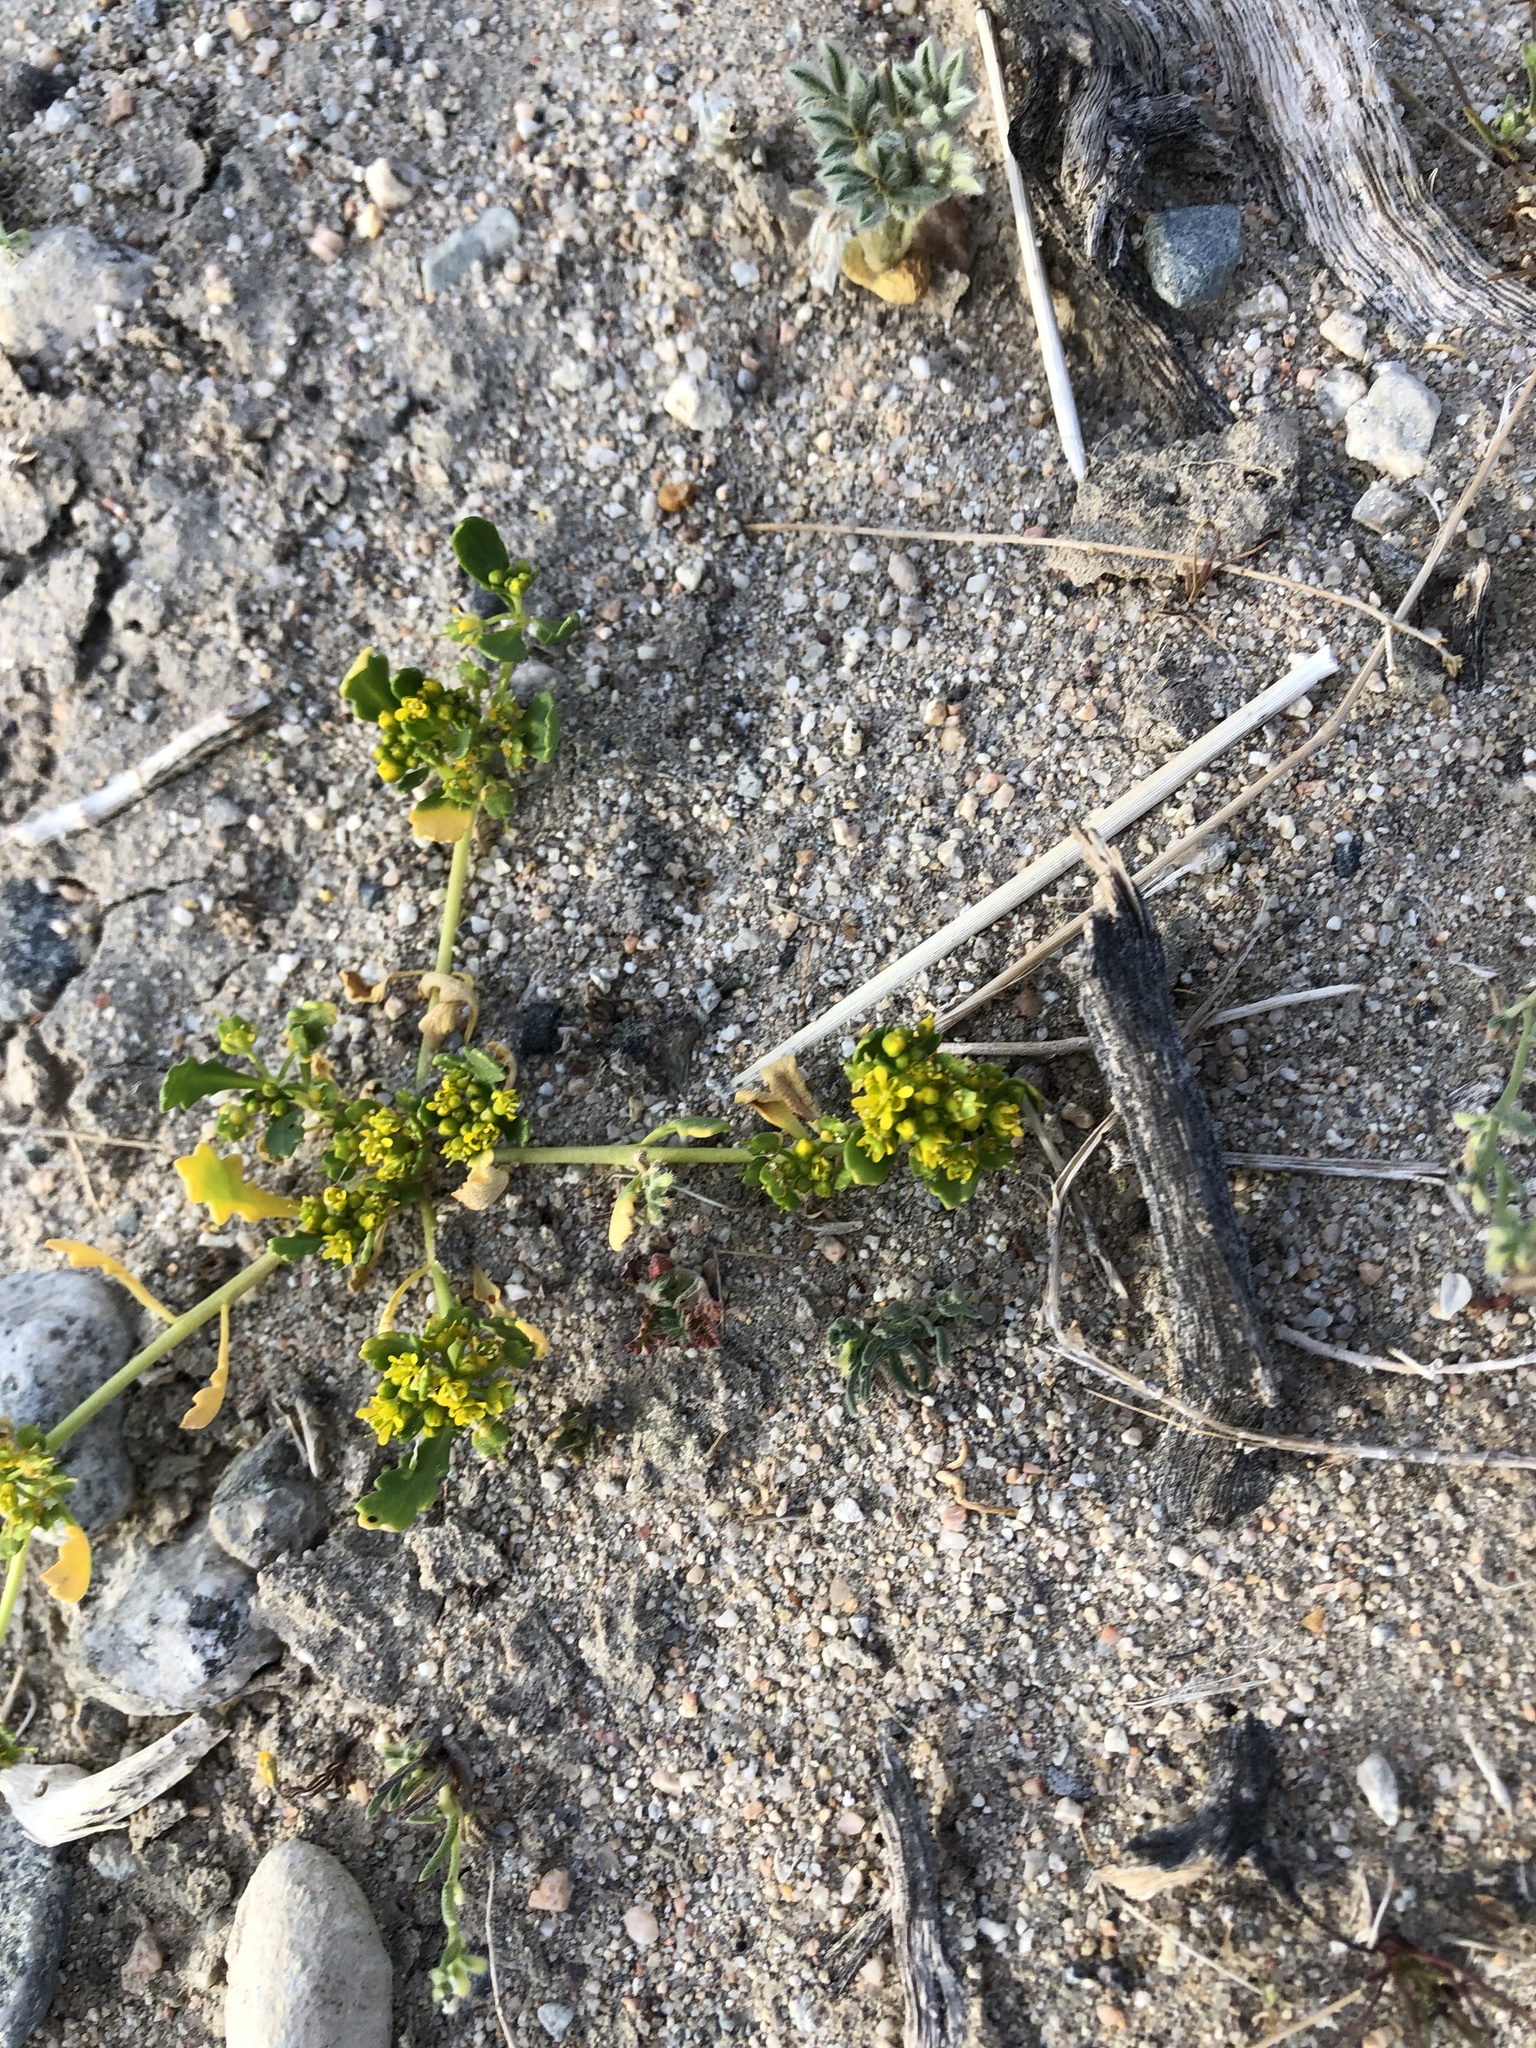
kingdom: Plantae
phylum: Tracheophyta
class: Magnoliopsida
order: Brassicales
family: Brassicaceae
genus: Lepidium
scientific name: Lepidium flavum
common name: Yellow pepperwort
